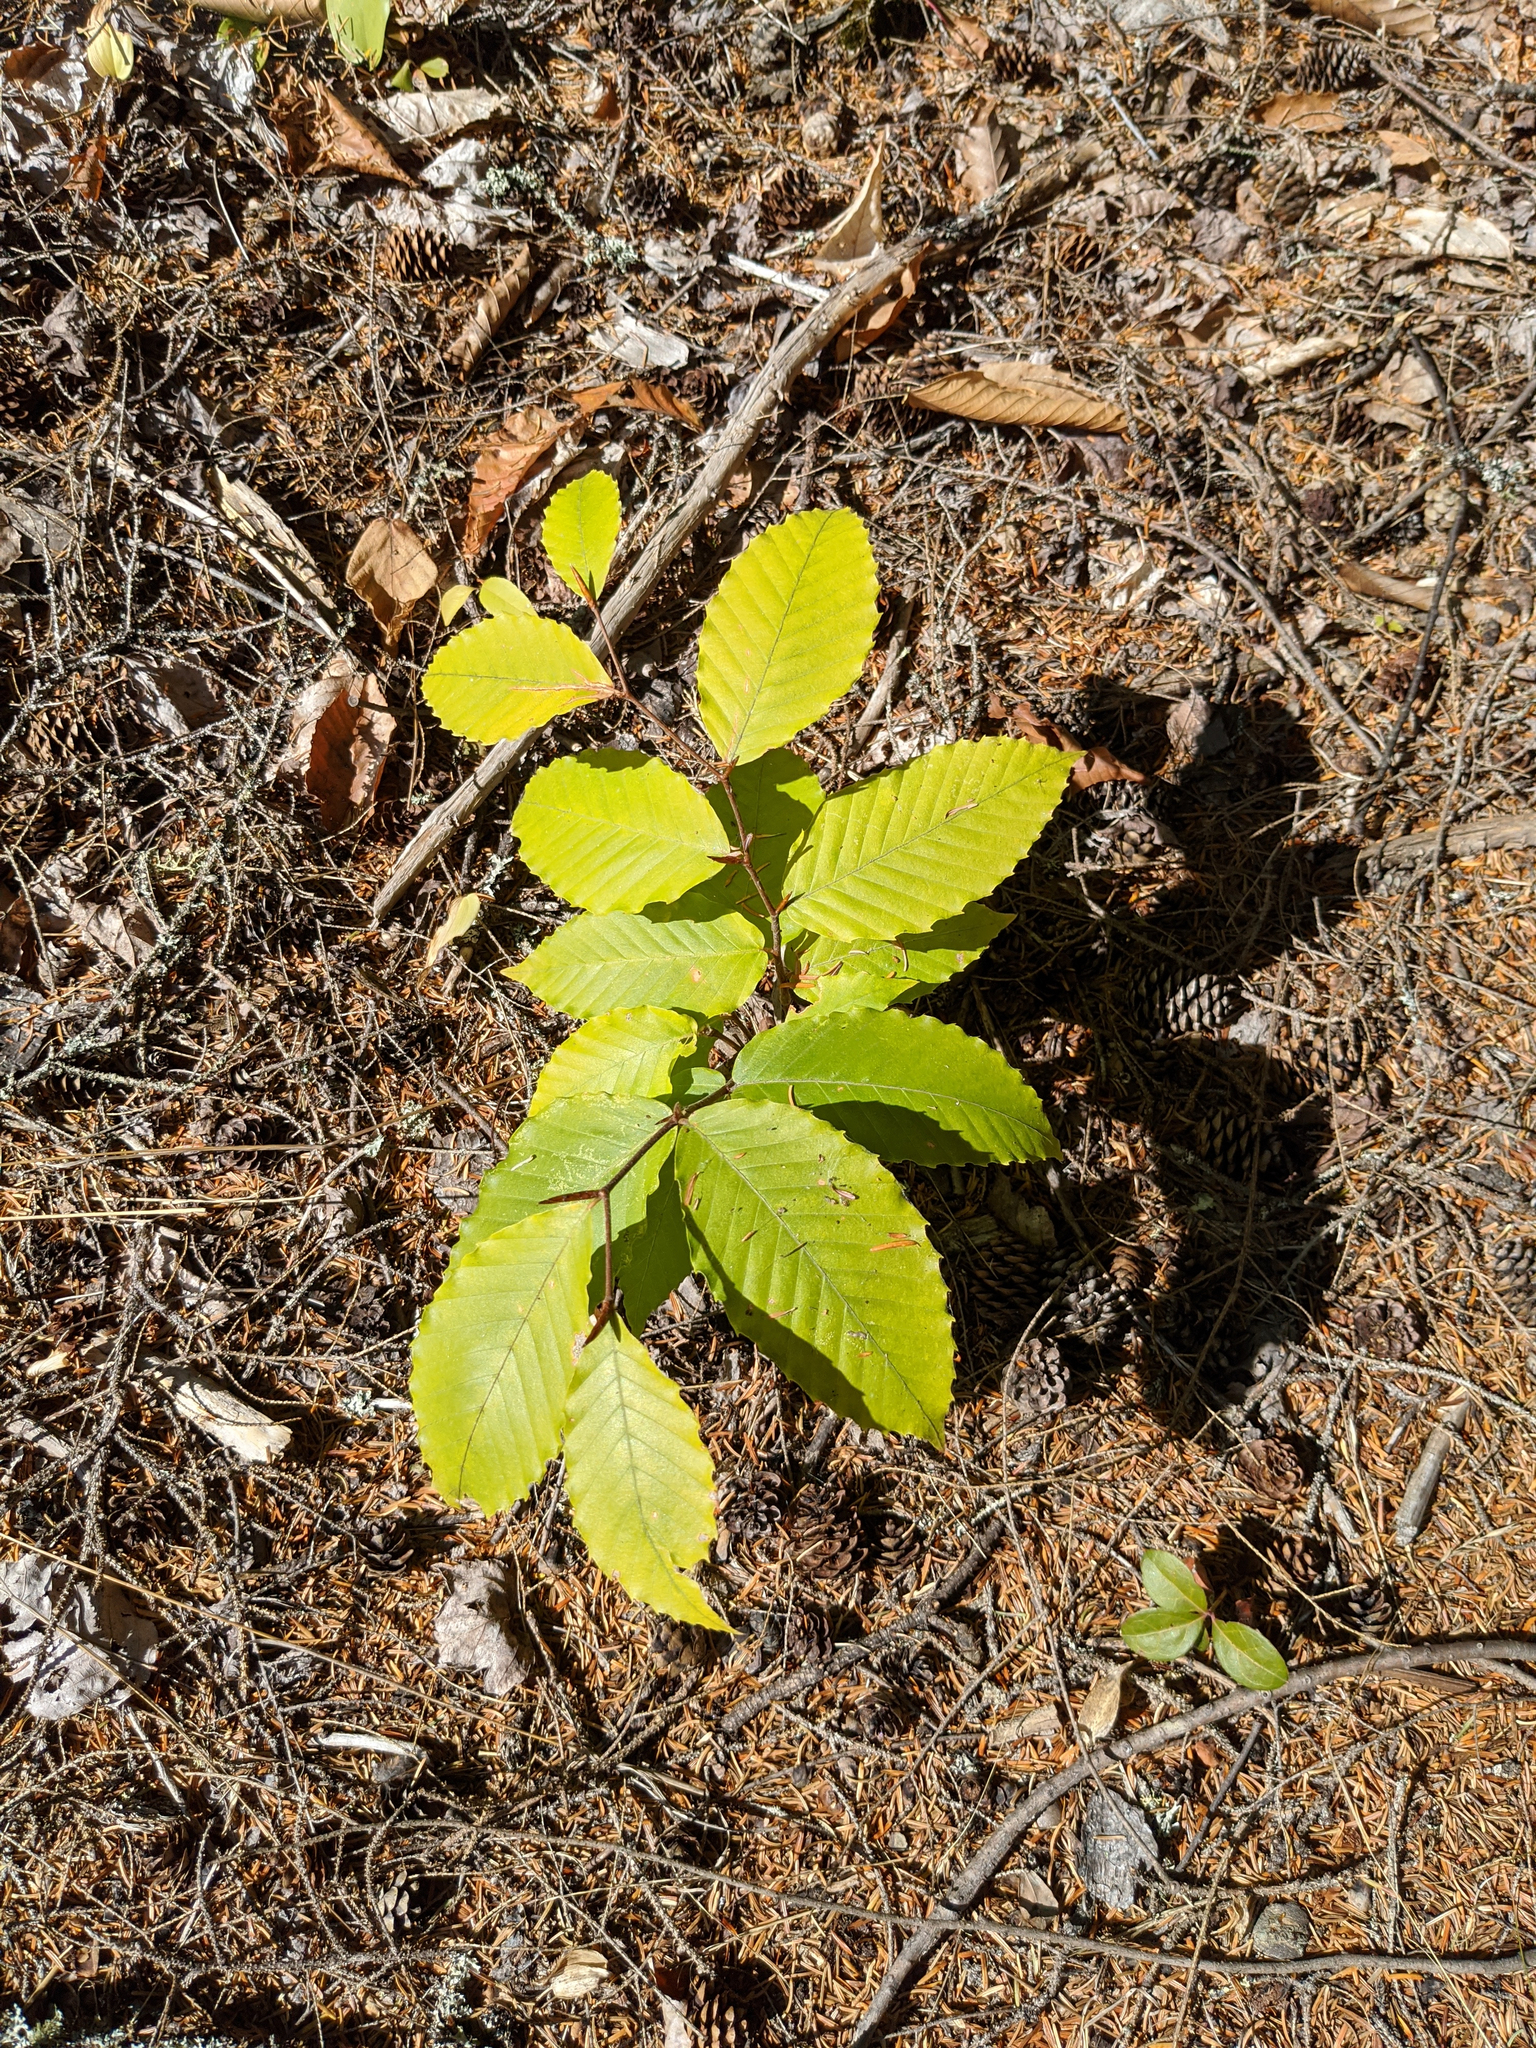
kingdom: Plantae
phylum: Tracheophyta
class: Magnoliopsida
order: Fagales
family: Fagaceae
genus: Fagus
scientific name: Fagus grandifolia
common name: American beech
